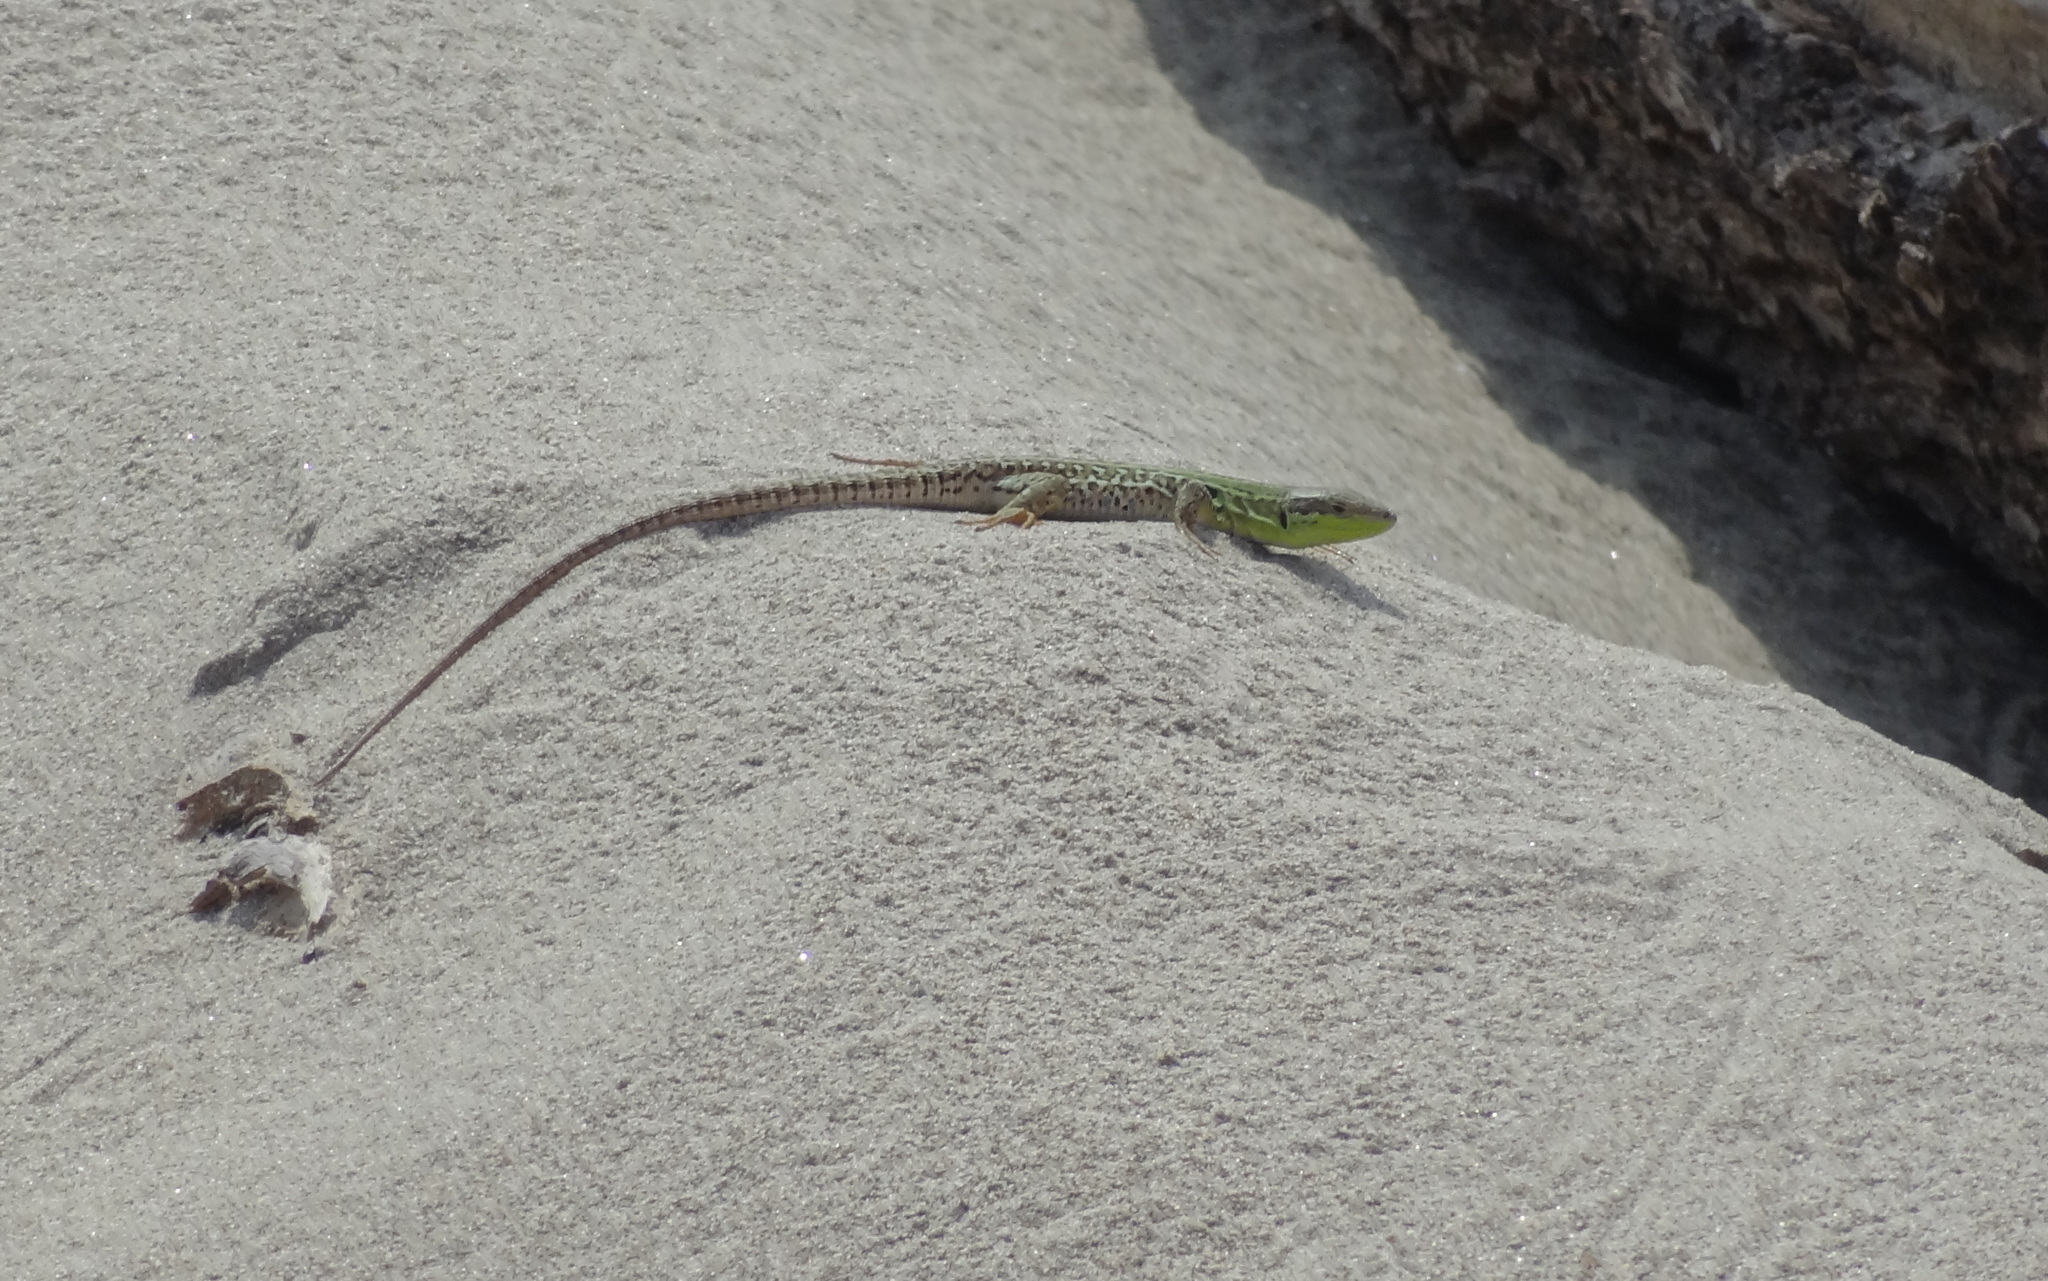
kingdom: Animalia
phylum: Chordata
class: Squamata
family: Lacertidae
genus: Podarcis
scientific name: Podarcis siculus
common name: Italian wall lizard
